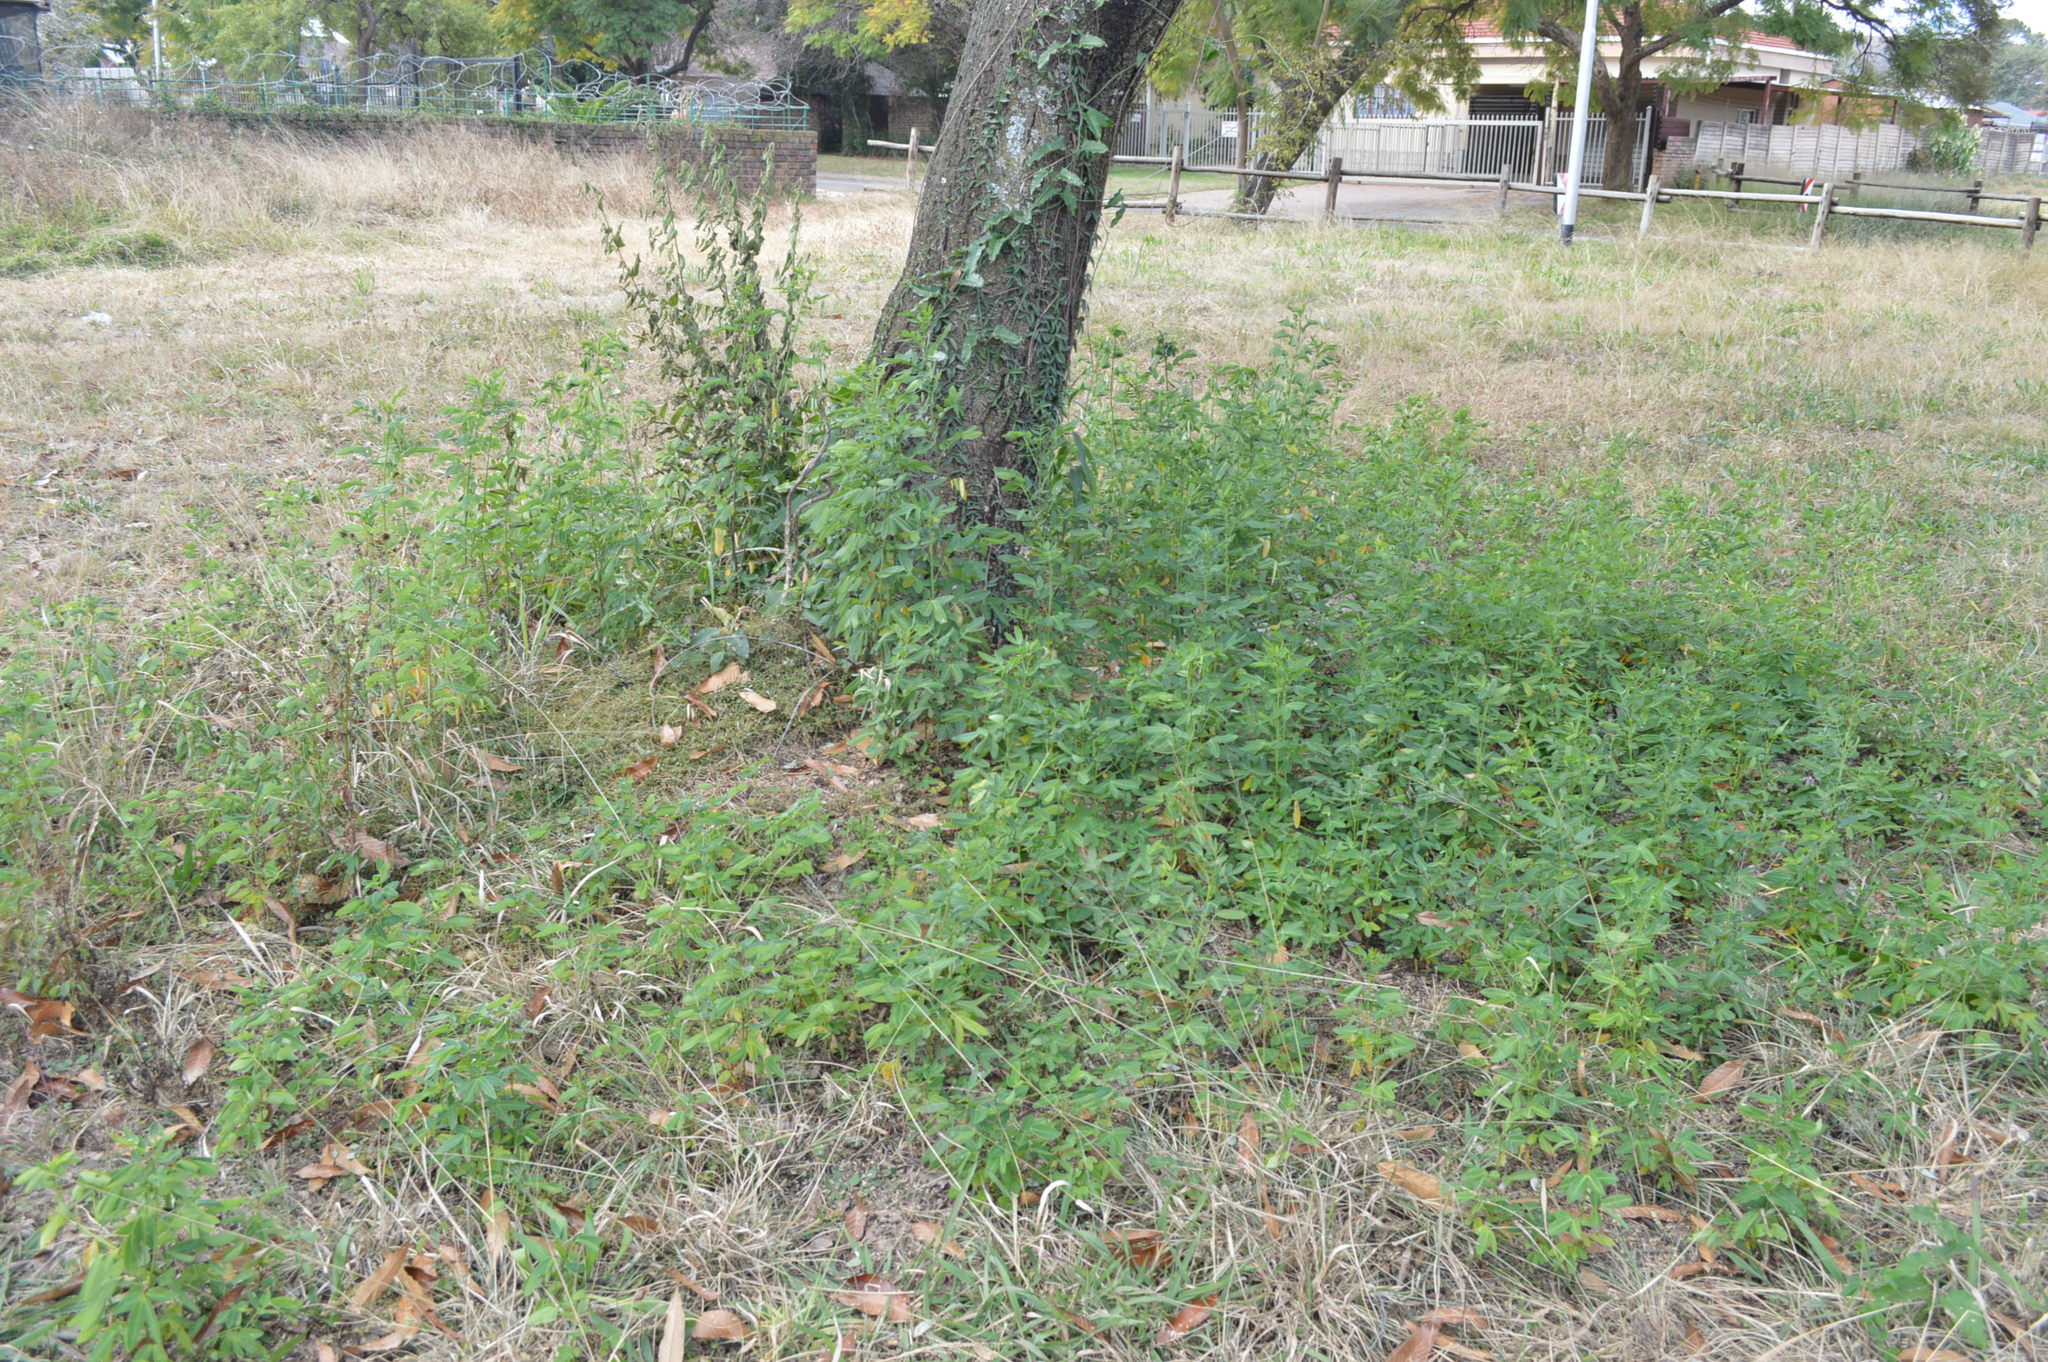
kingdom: Plantae
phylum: Tracheophyta
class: Magnoliopsida
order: Fabales
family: Fabaceae
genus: Senna
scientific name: Senna corymbosa
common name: Argentine senna
